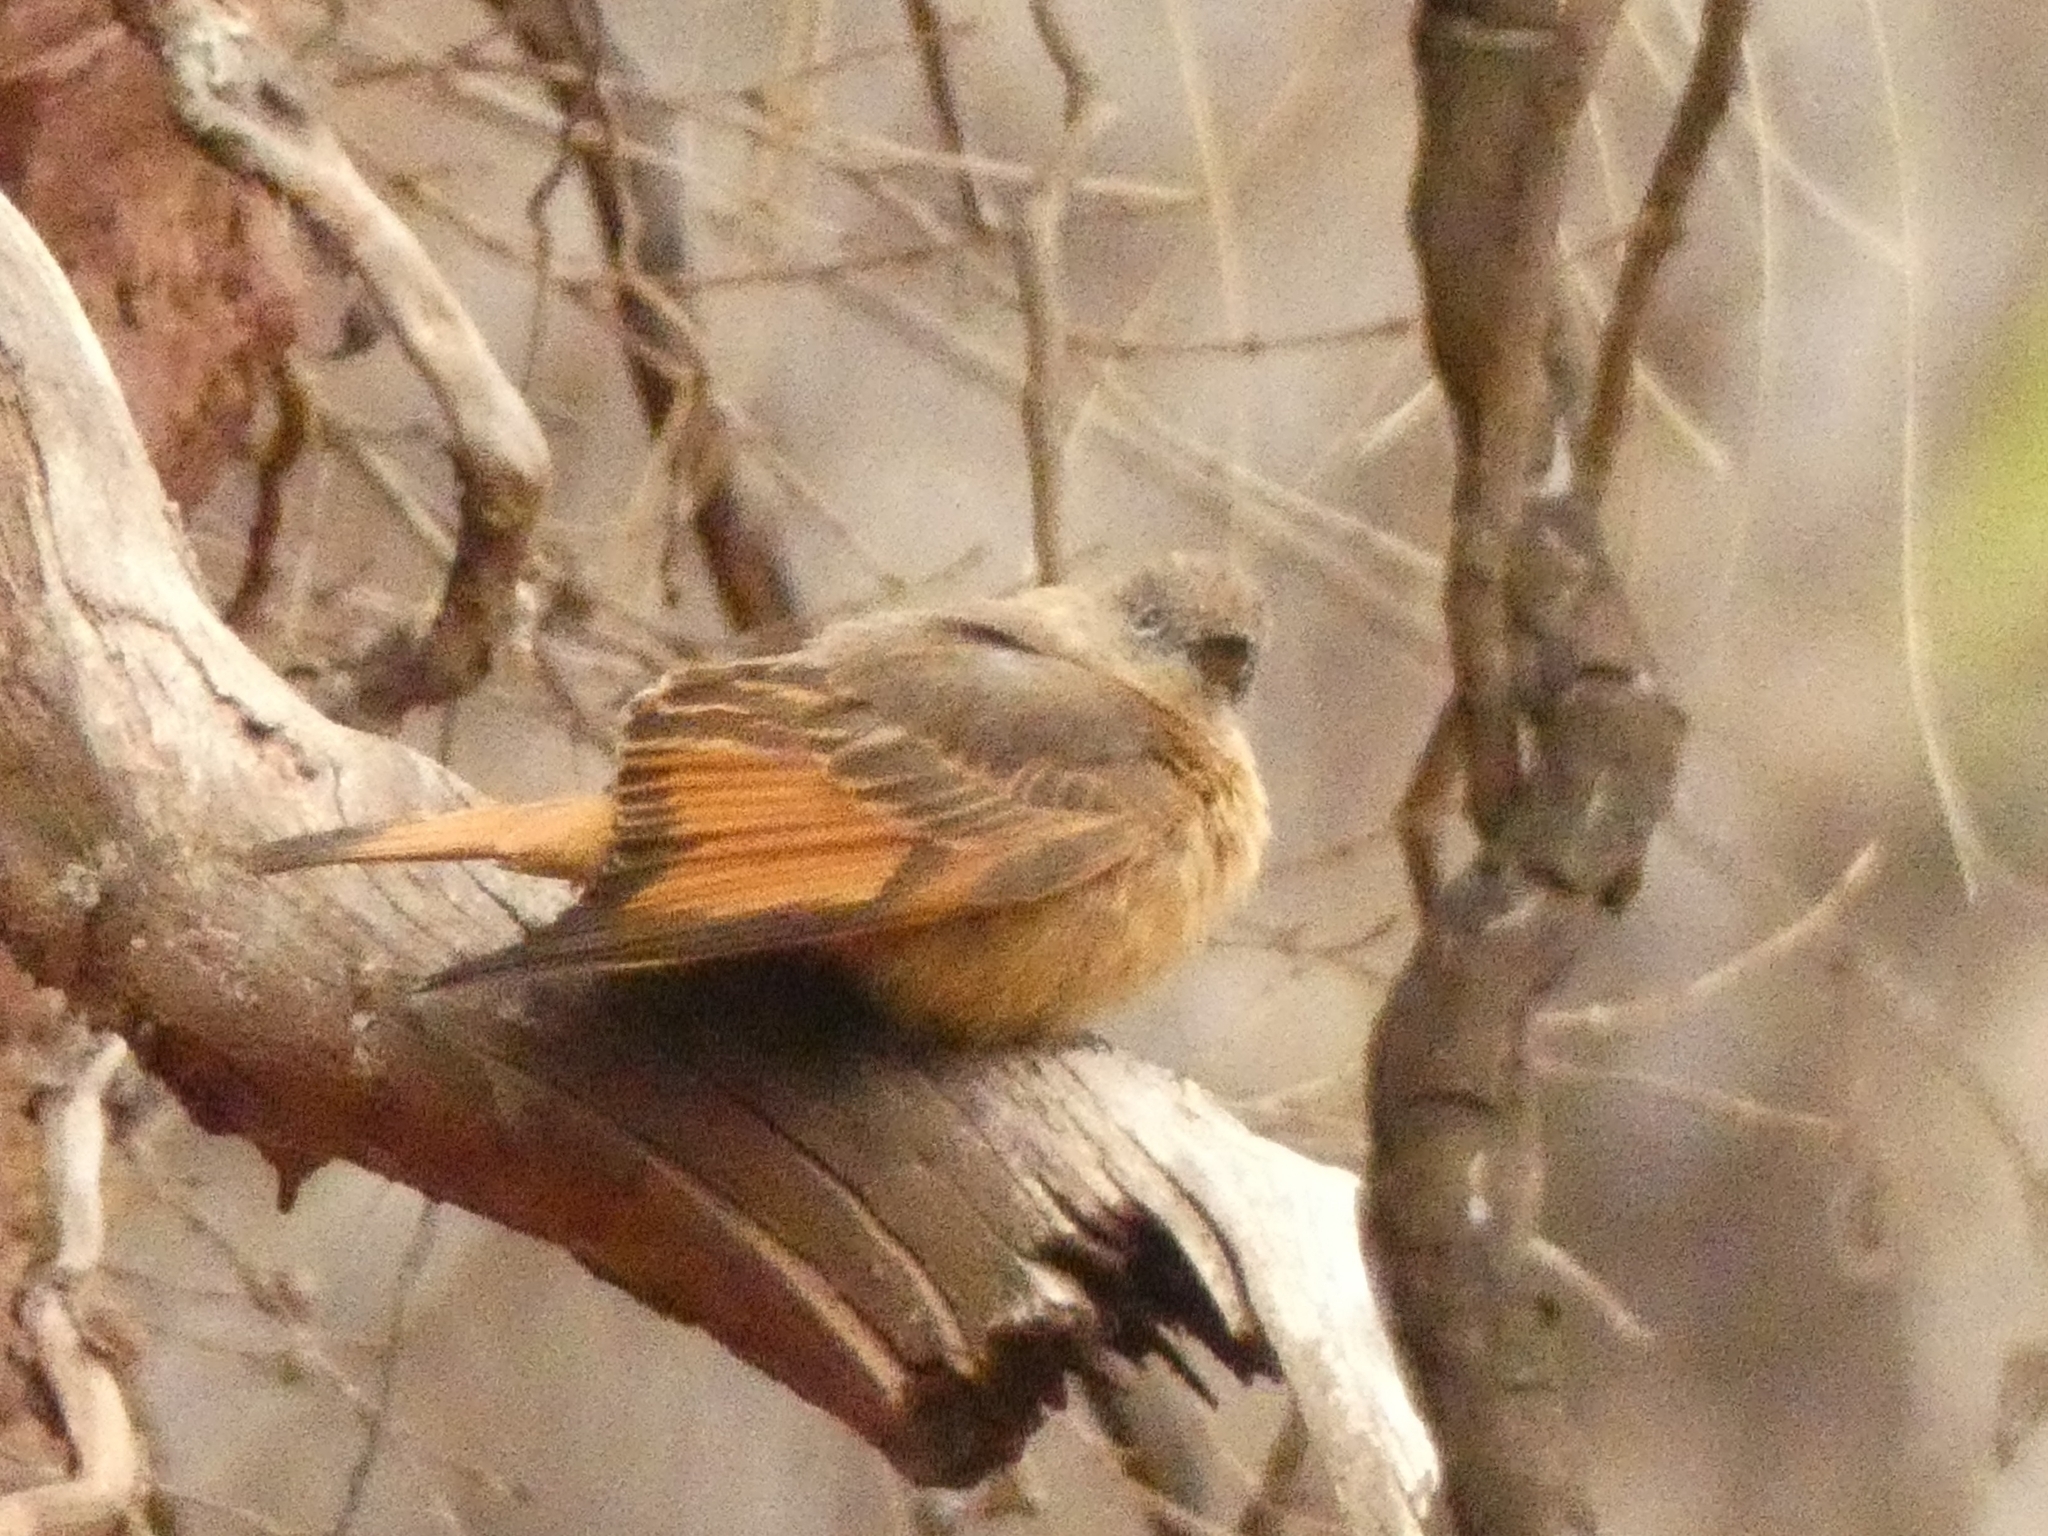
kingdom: Animalia
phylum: Chordata
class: Aves
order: Passeriformes
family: Tyrannidae
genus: Hirundinea
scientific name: Hirundinea ferruginea
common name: Cliff flycatcher
